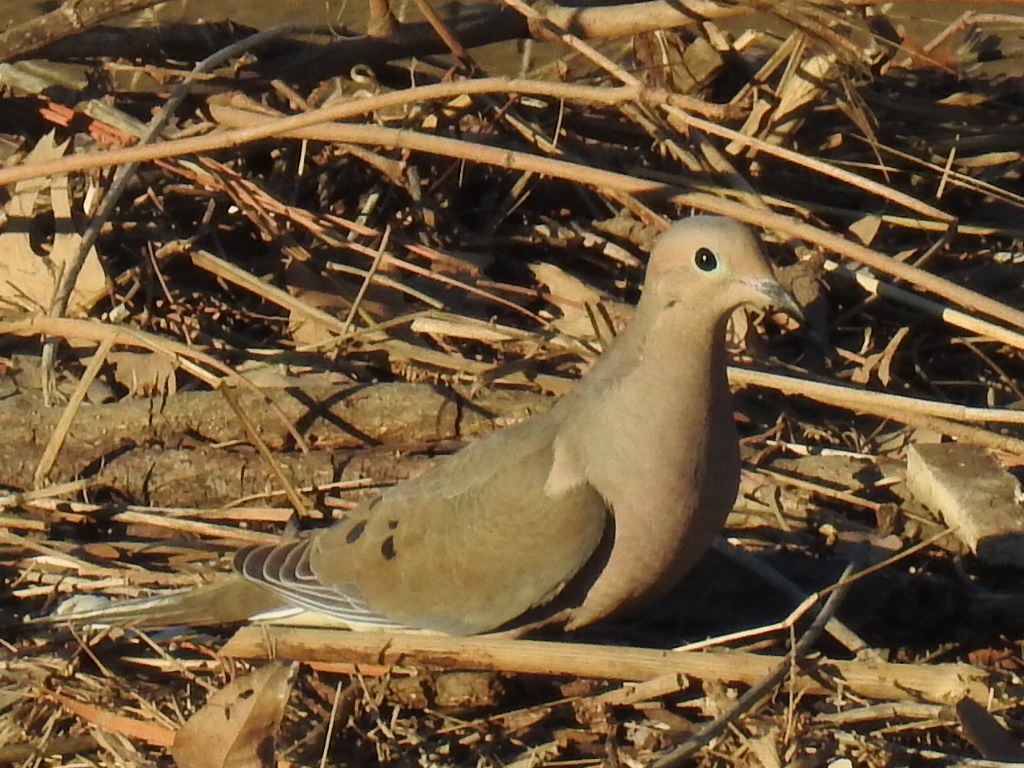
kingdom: Animalia
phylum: Chordata
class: Aves
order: Columbiformes
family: Columbidae
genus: Zenaida
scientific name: Zenaida macroura
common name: Mourning dove
